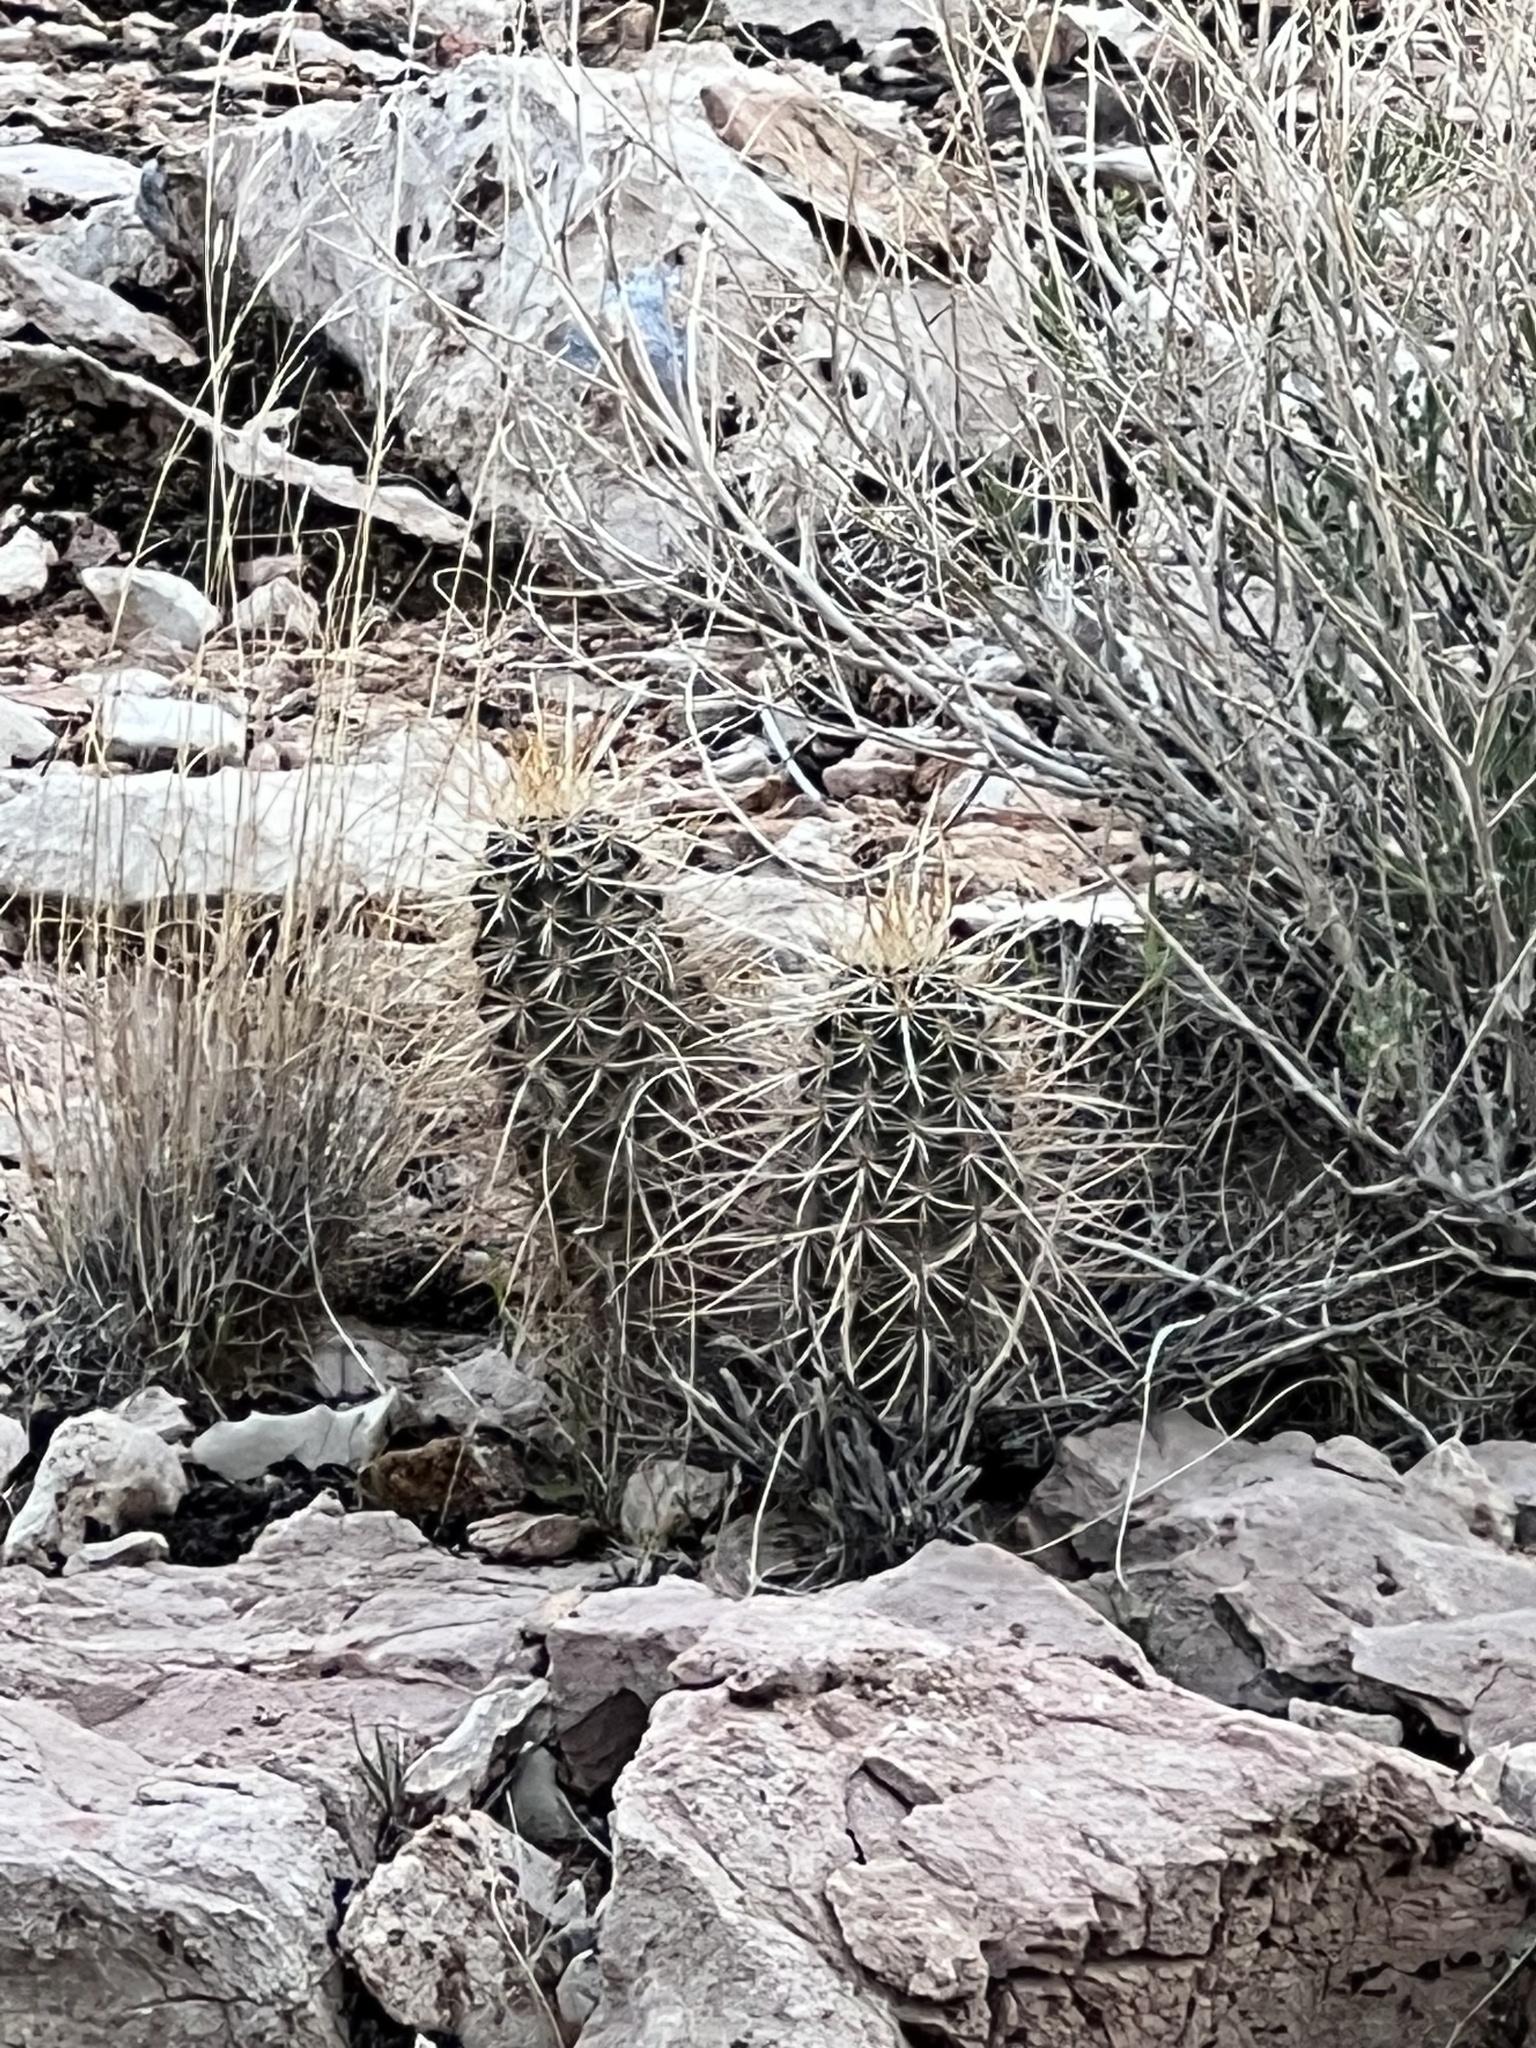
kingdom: Plantae
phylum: Tracheophyta
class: Magnoliopsida
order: Caryophyllales
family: Cactaceae
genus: Echinocereus
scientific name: Echinocereus engelmannii
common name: Engelmann's hedgehog cactus
